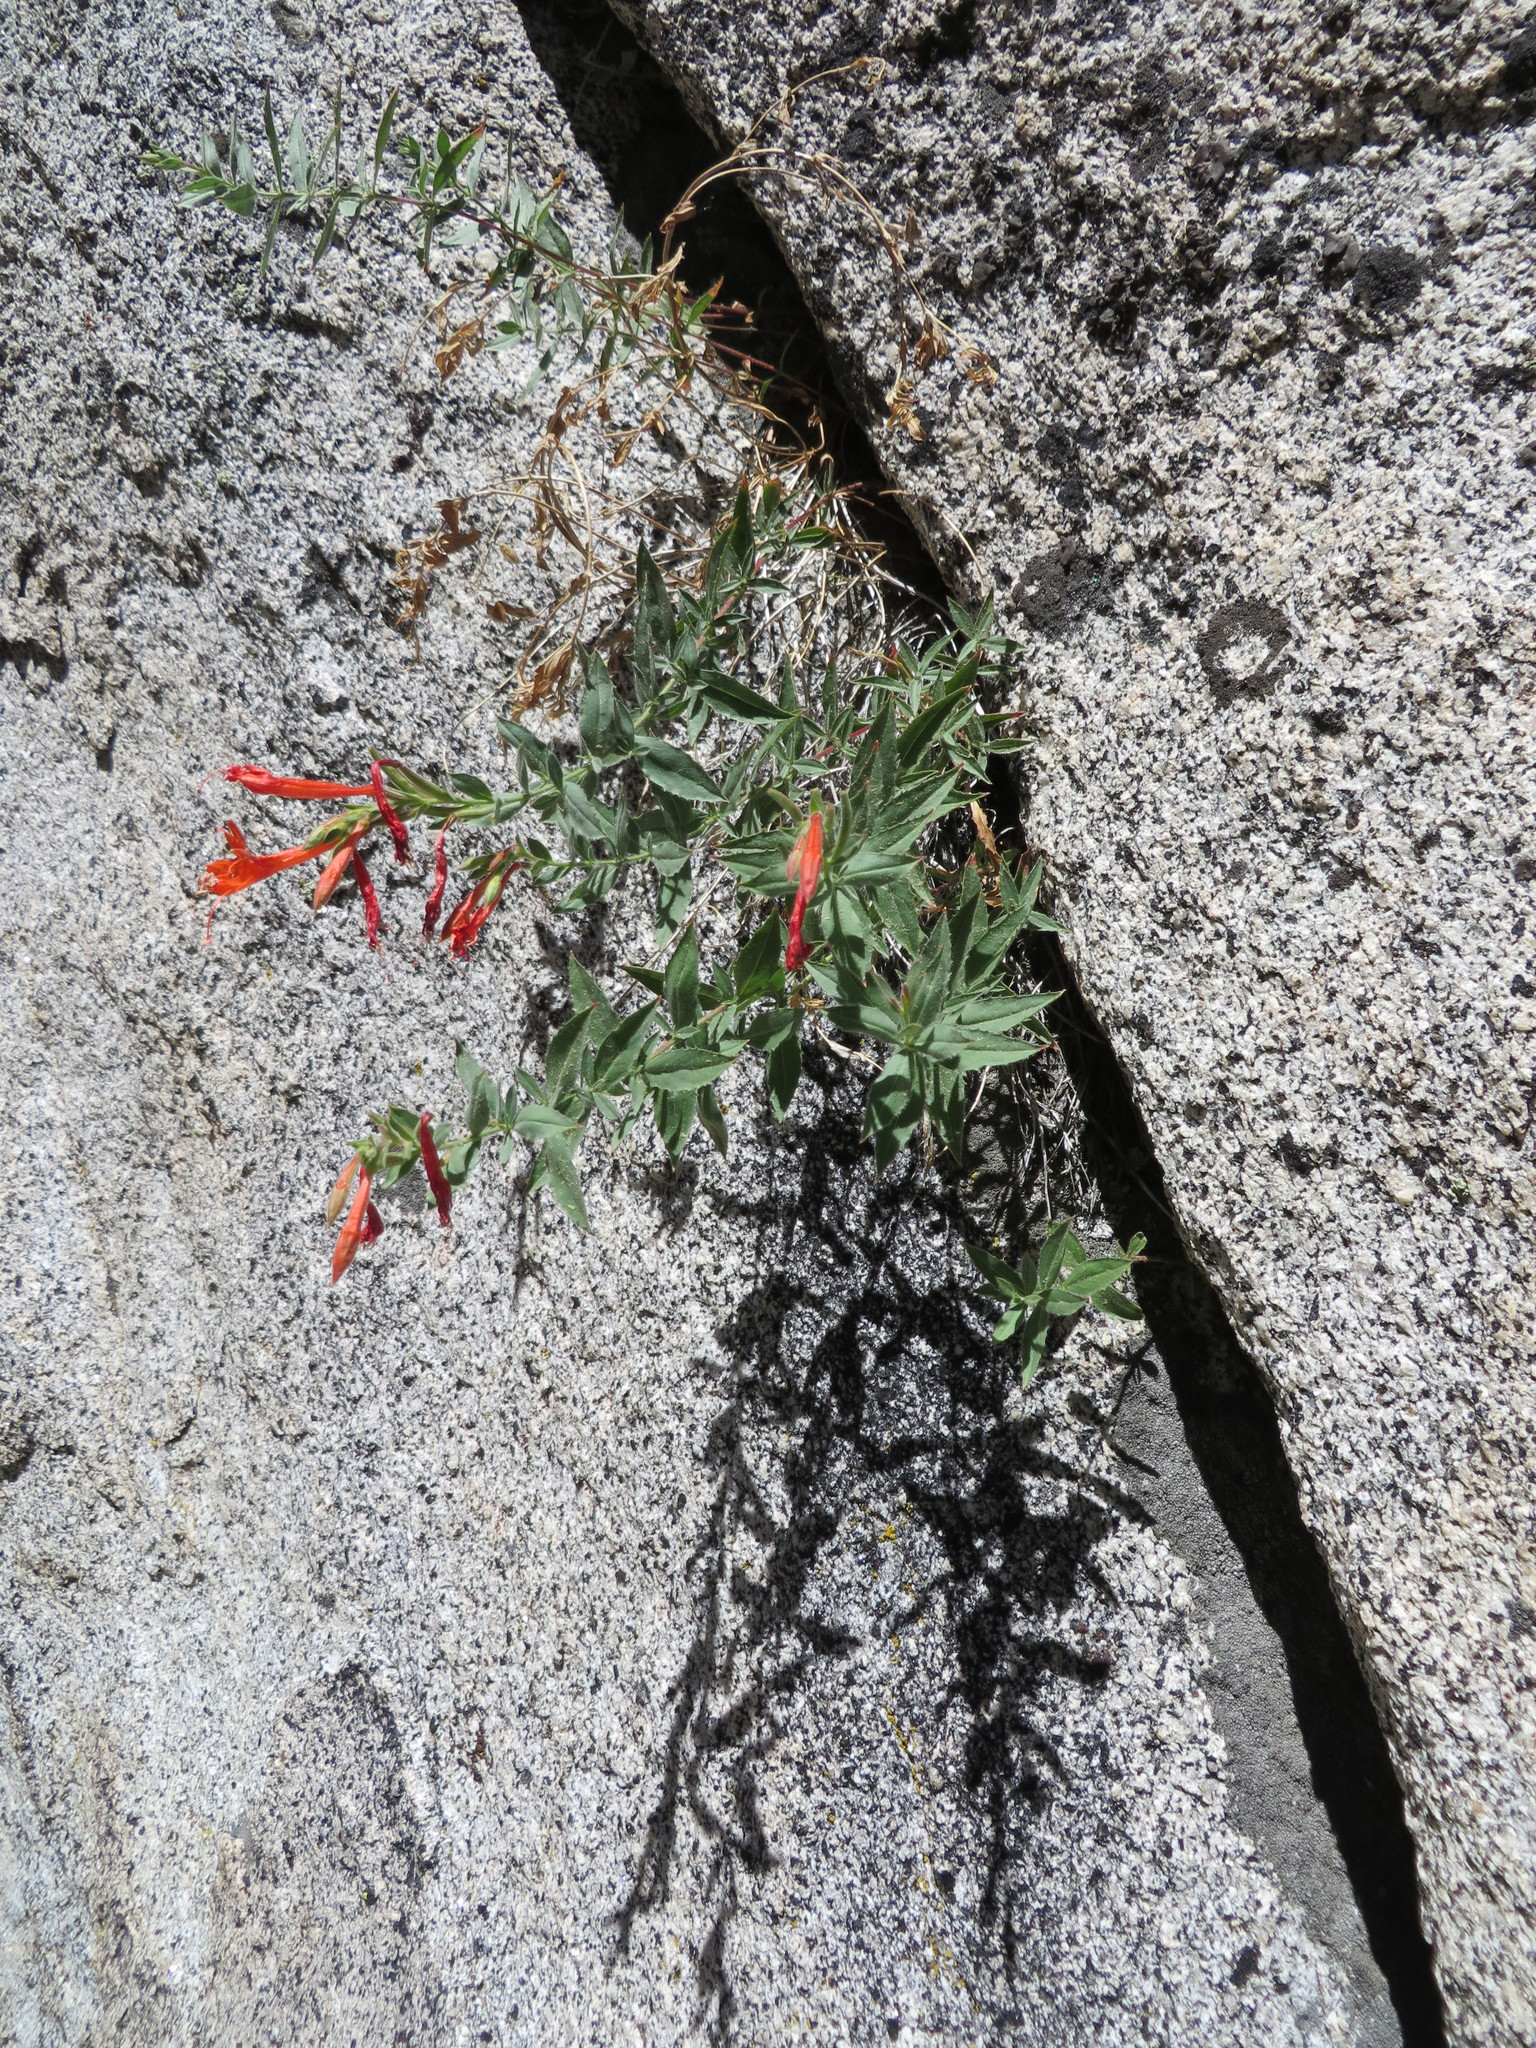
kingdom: Plantae
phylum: Tracheophyta
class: Magnoliopsida
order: Myrtales
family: Onagraceae
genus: Epilobium
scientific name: Epilobium canum
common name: California-fuchsia
